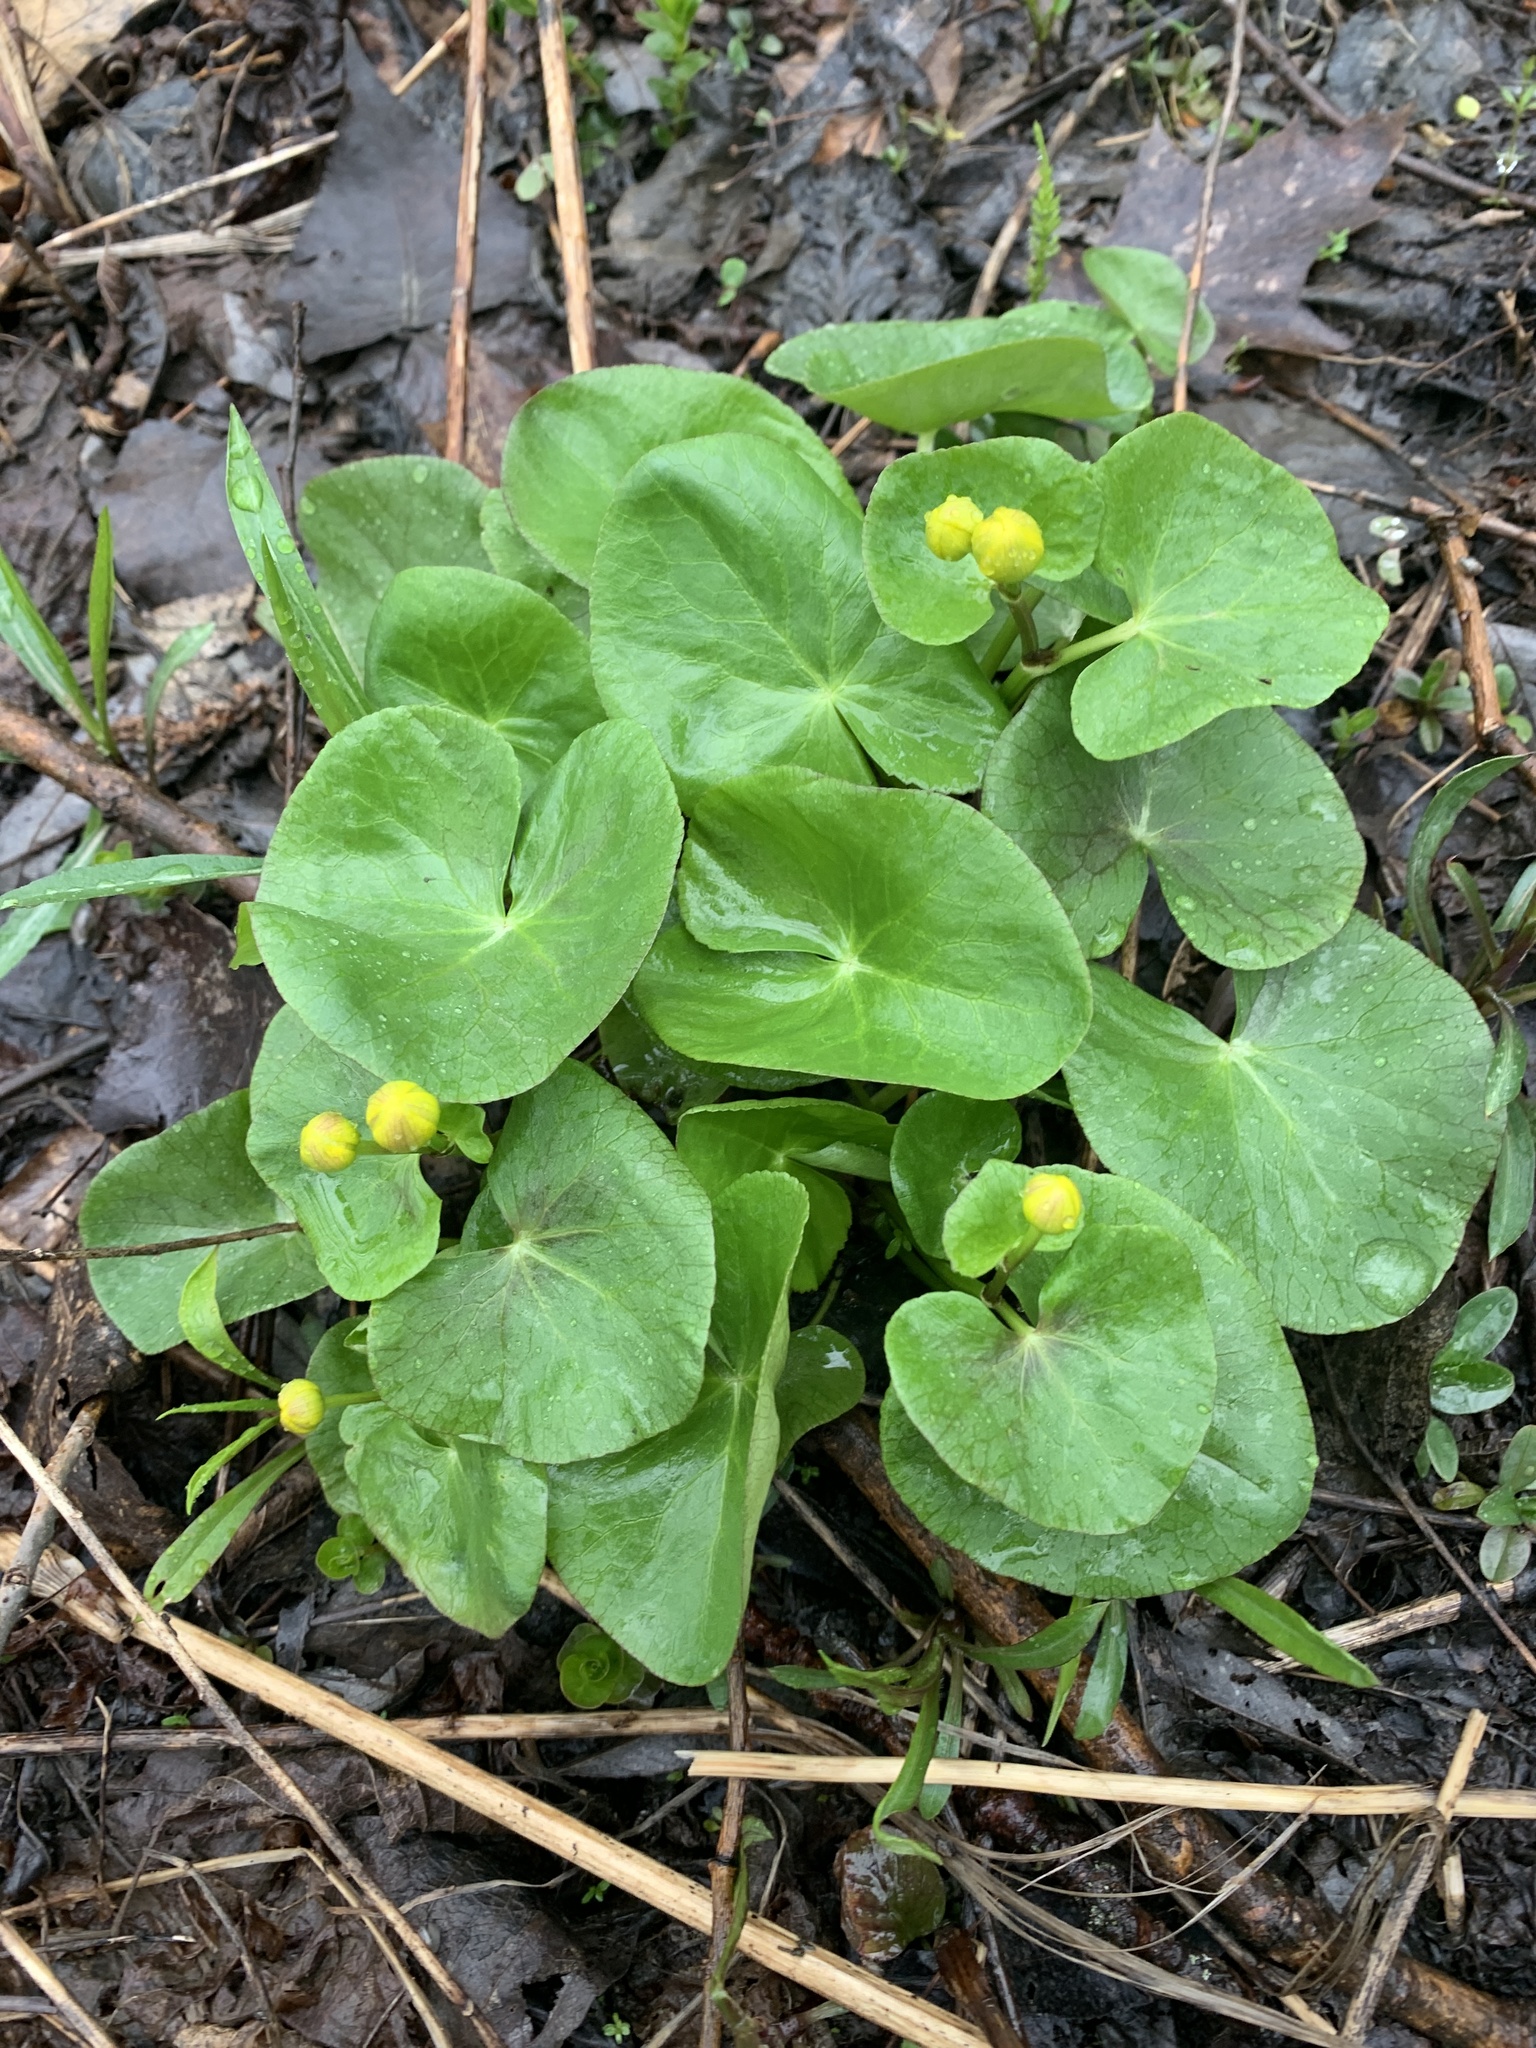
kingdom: Plantae
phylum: Tracheophyta
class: Magnoliopsida
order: Ranunculales
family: Ranunculaceae
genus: Caltha
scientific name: Caltha palustris
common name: Marsh marigold
